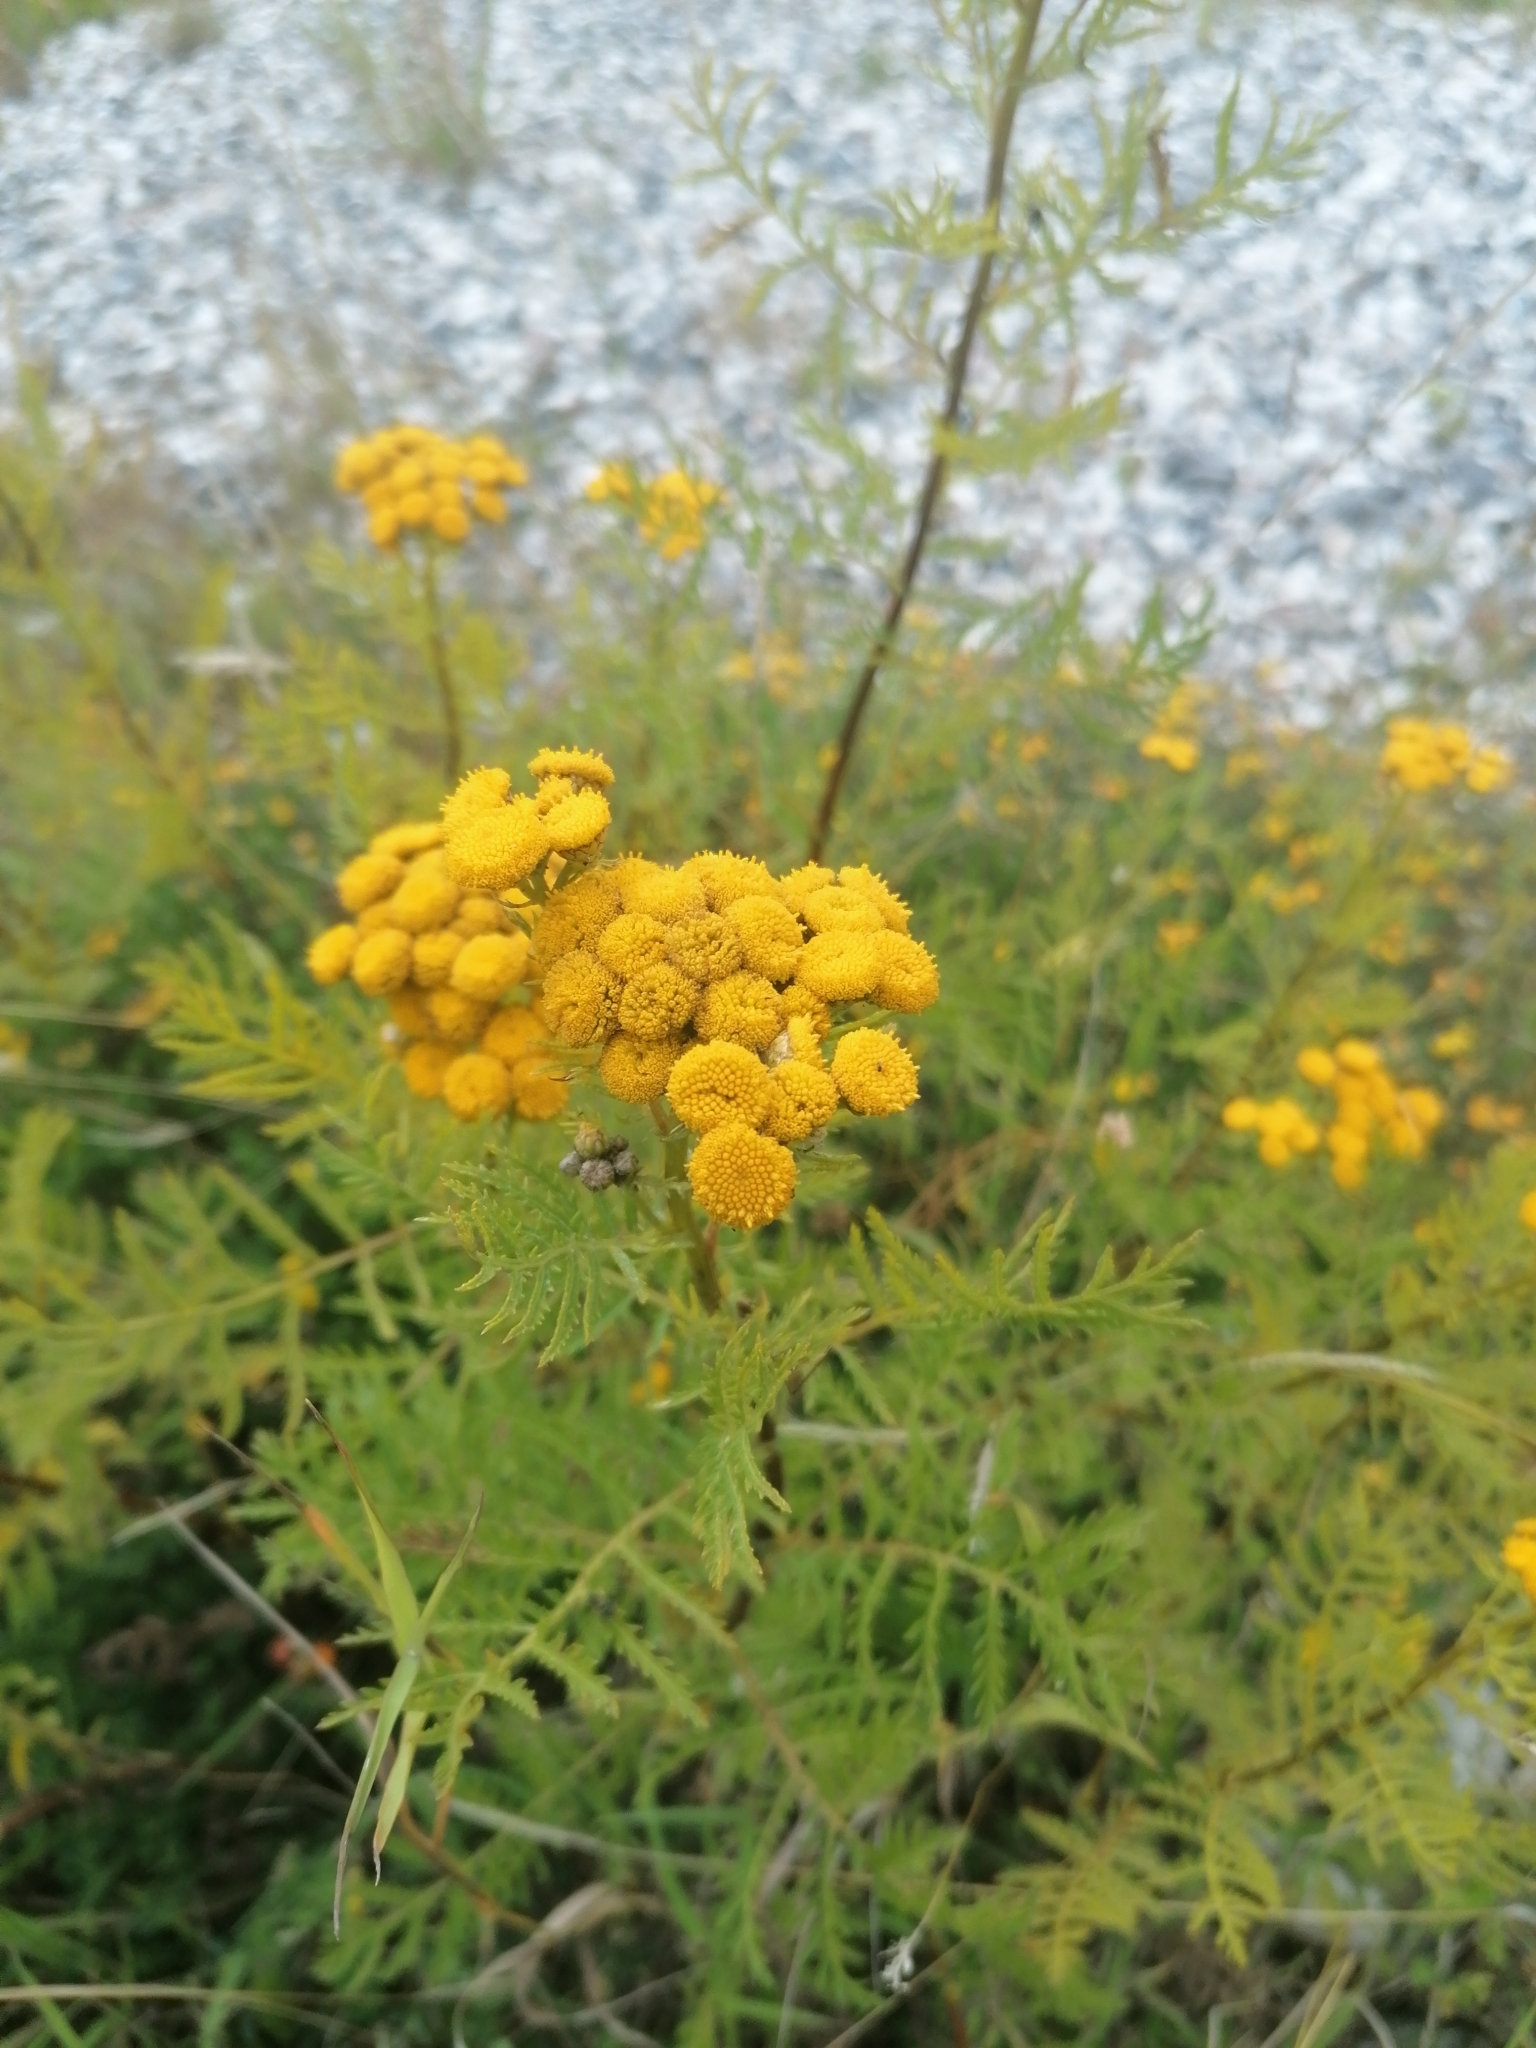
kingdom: Plantae
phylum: Tracheophyta
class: Magnoliopsida
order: Asterales
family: Asteraceae
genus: Tanacetum
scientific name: Tanacetum vulgare
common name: Common tansy
